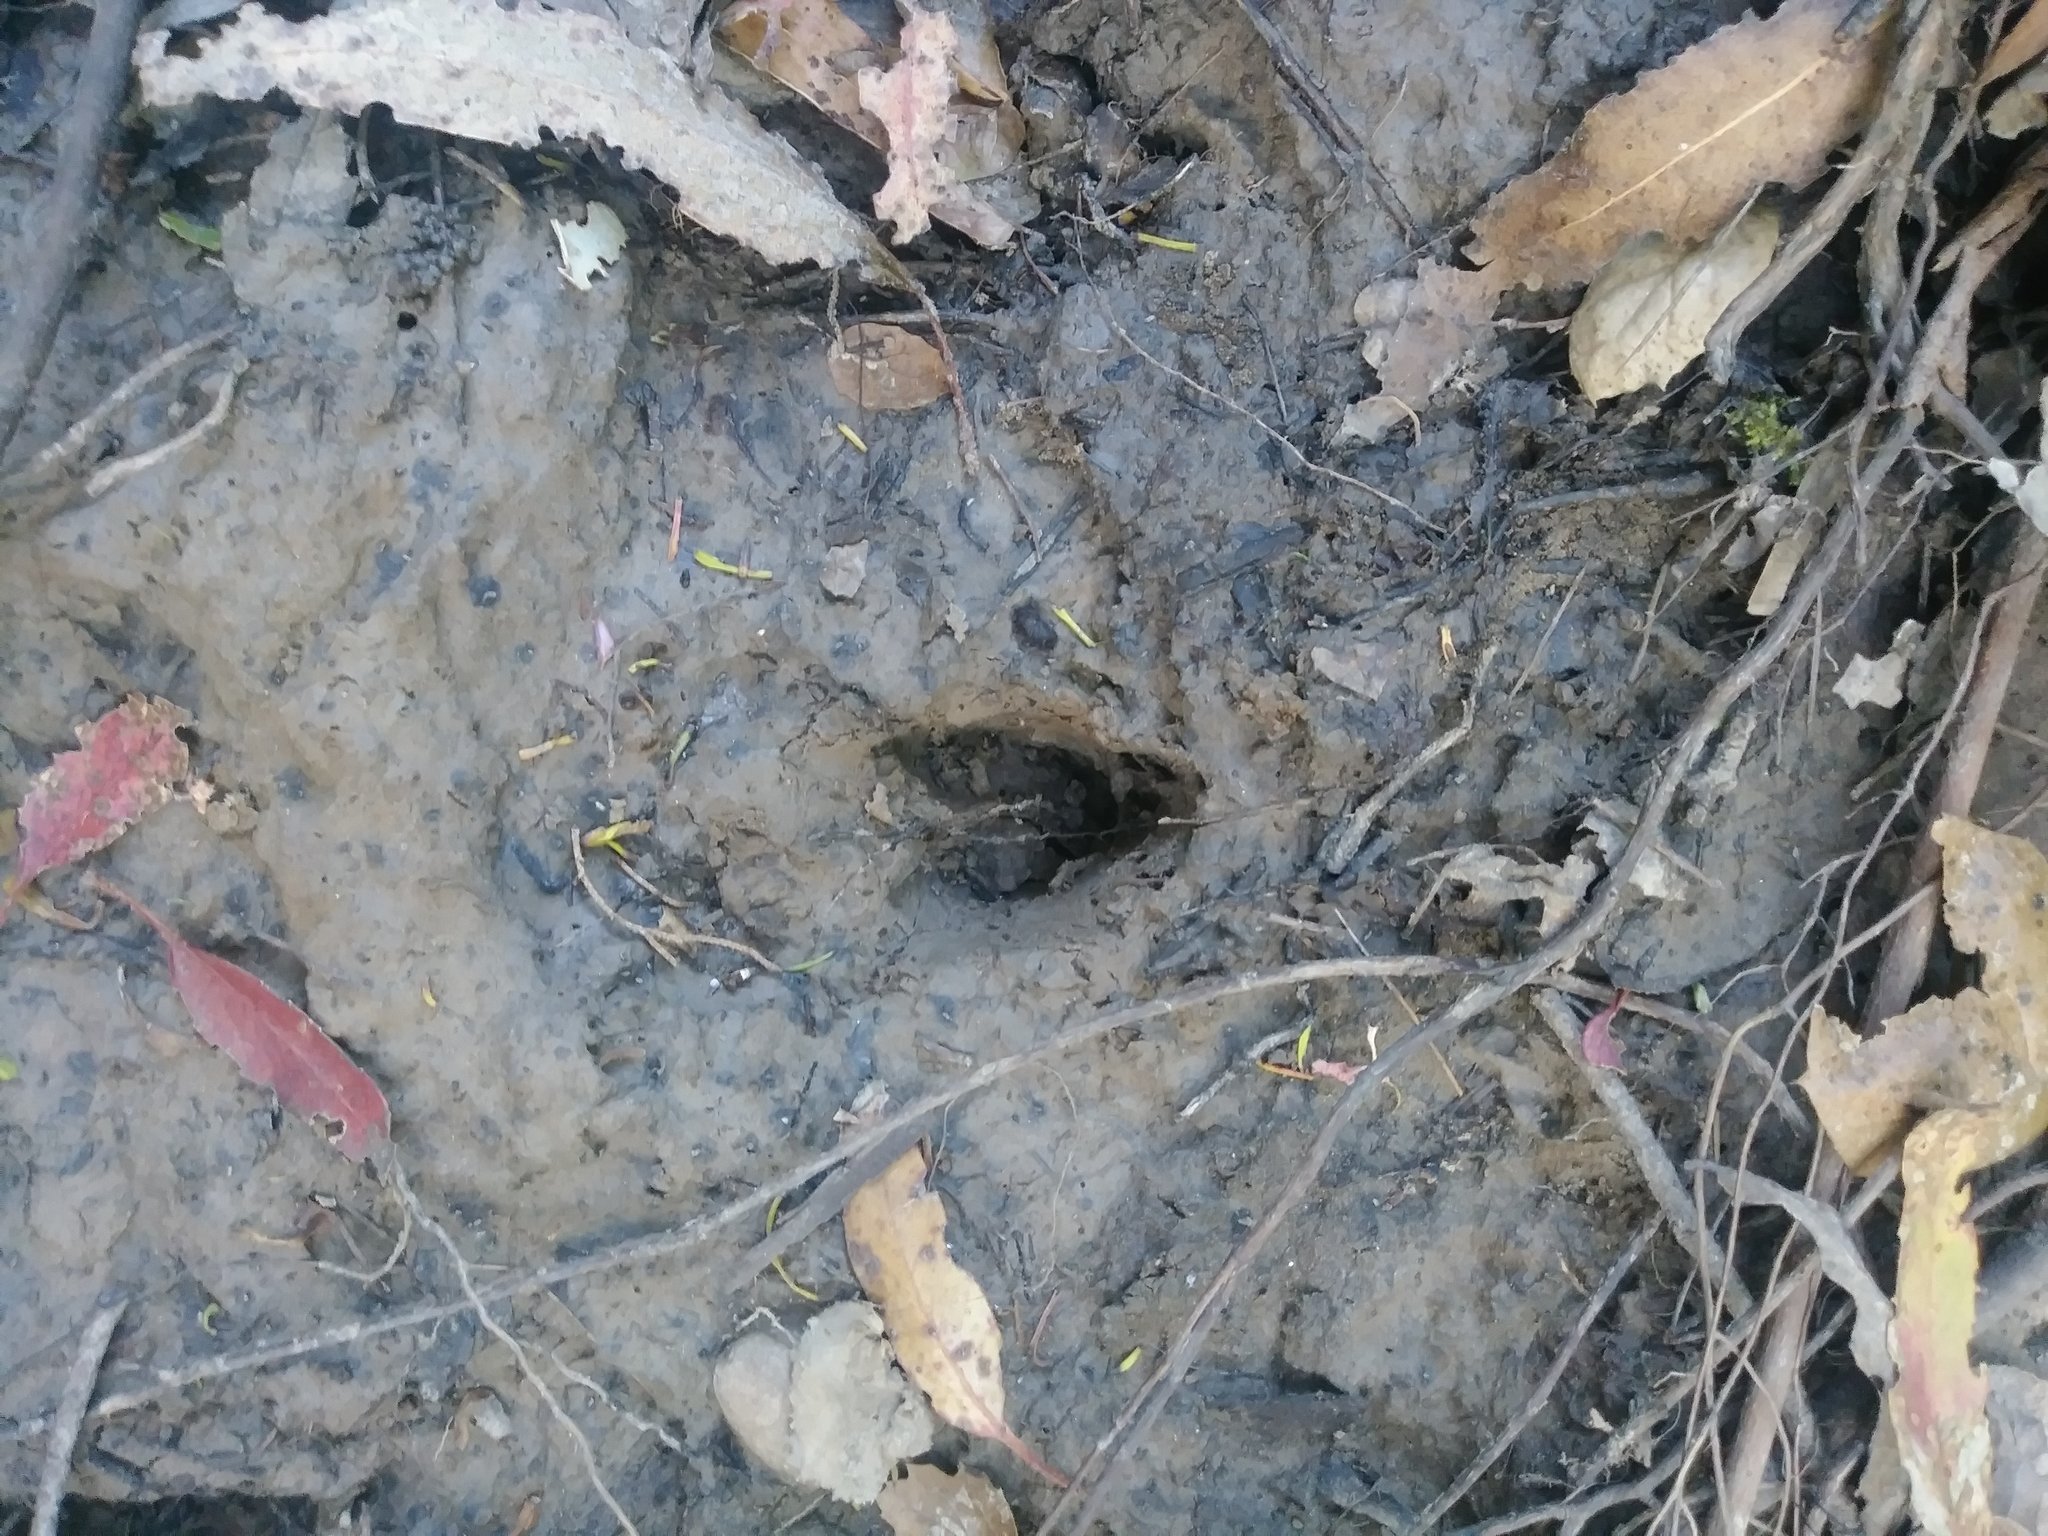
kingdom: Animalia
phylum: Chordata
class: Mammalia
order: Artiodactyla
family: Cervidae
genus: Odocoileus
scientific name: Odocoileus hemionus
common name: Mule deer
